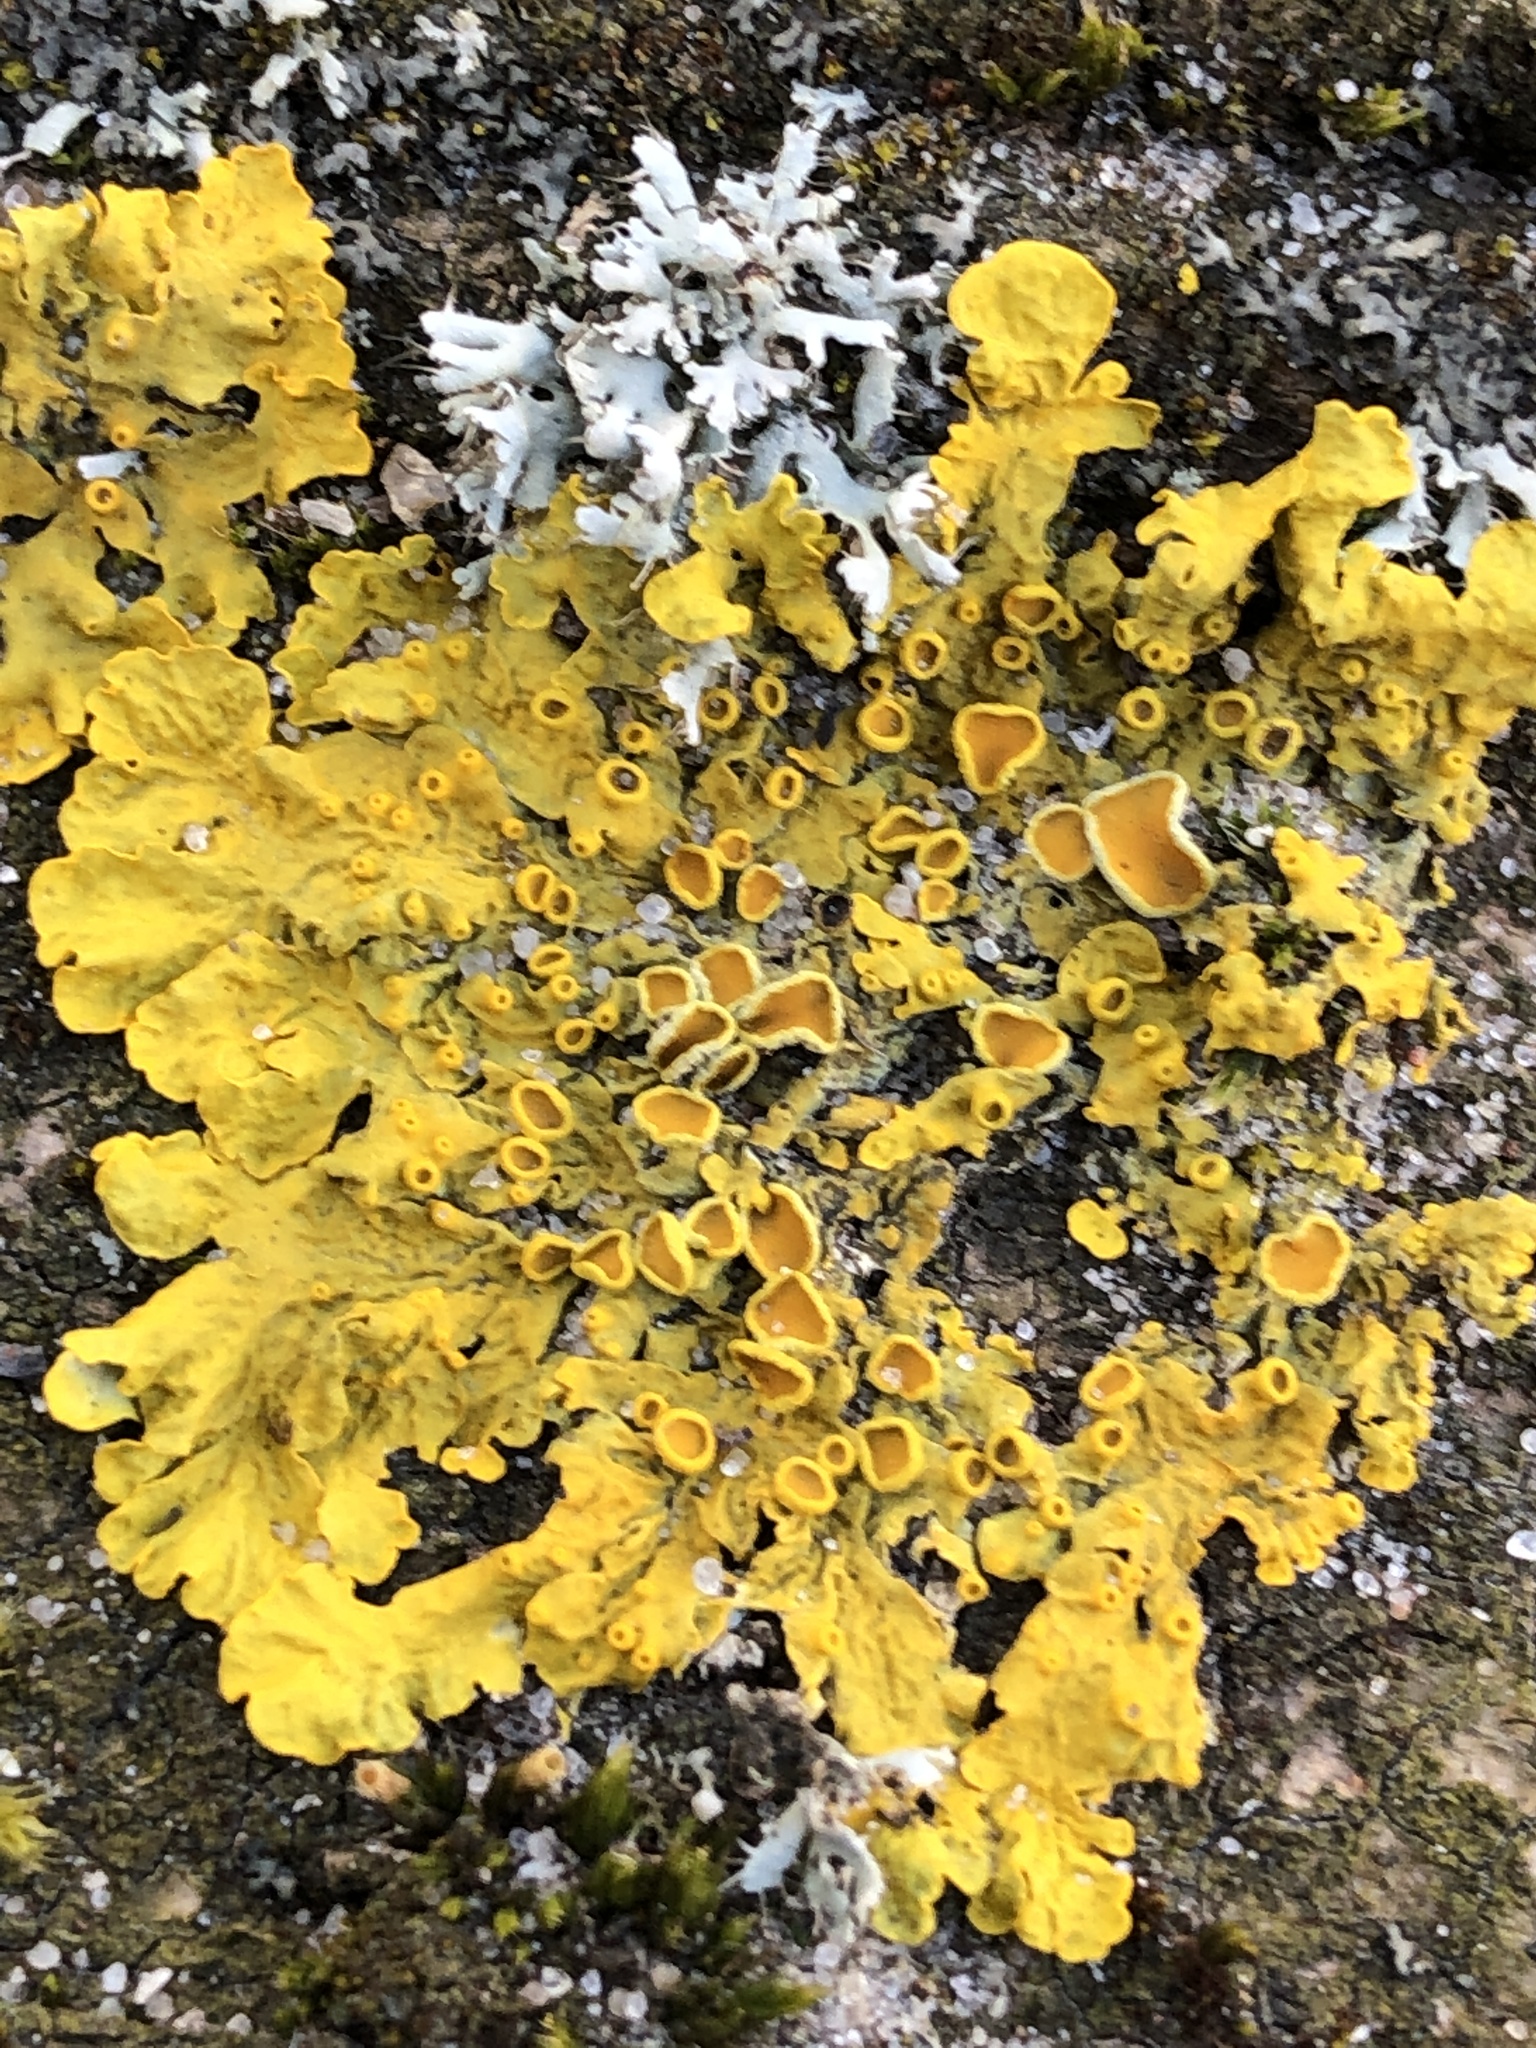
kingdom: Fungi
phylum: Ascomycota
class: Lecanoromycetes
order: Teloschistales
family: Teloschistaceae
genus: Xanthoria
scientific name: Xanthoria parietina
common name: Common orange lichen
